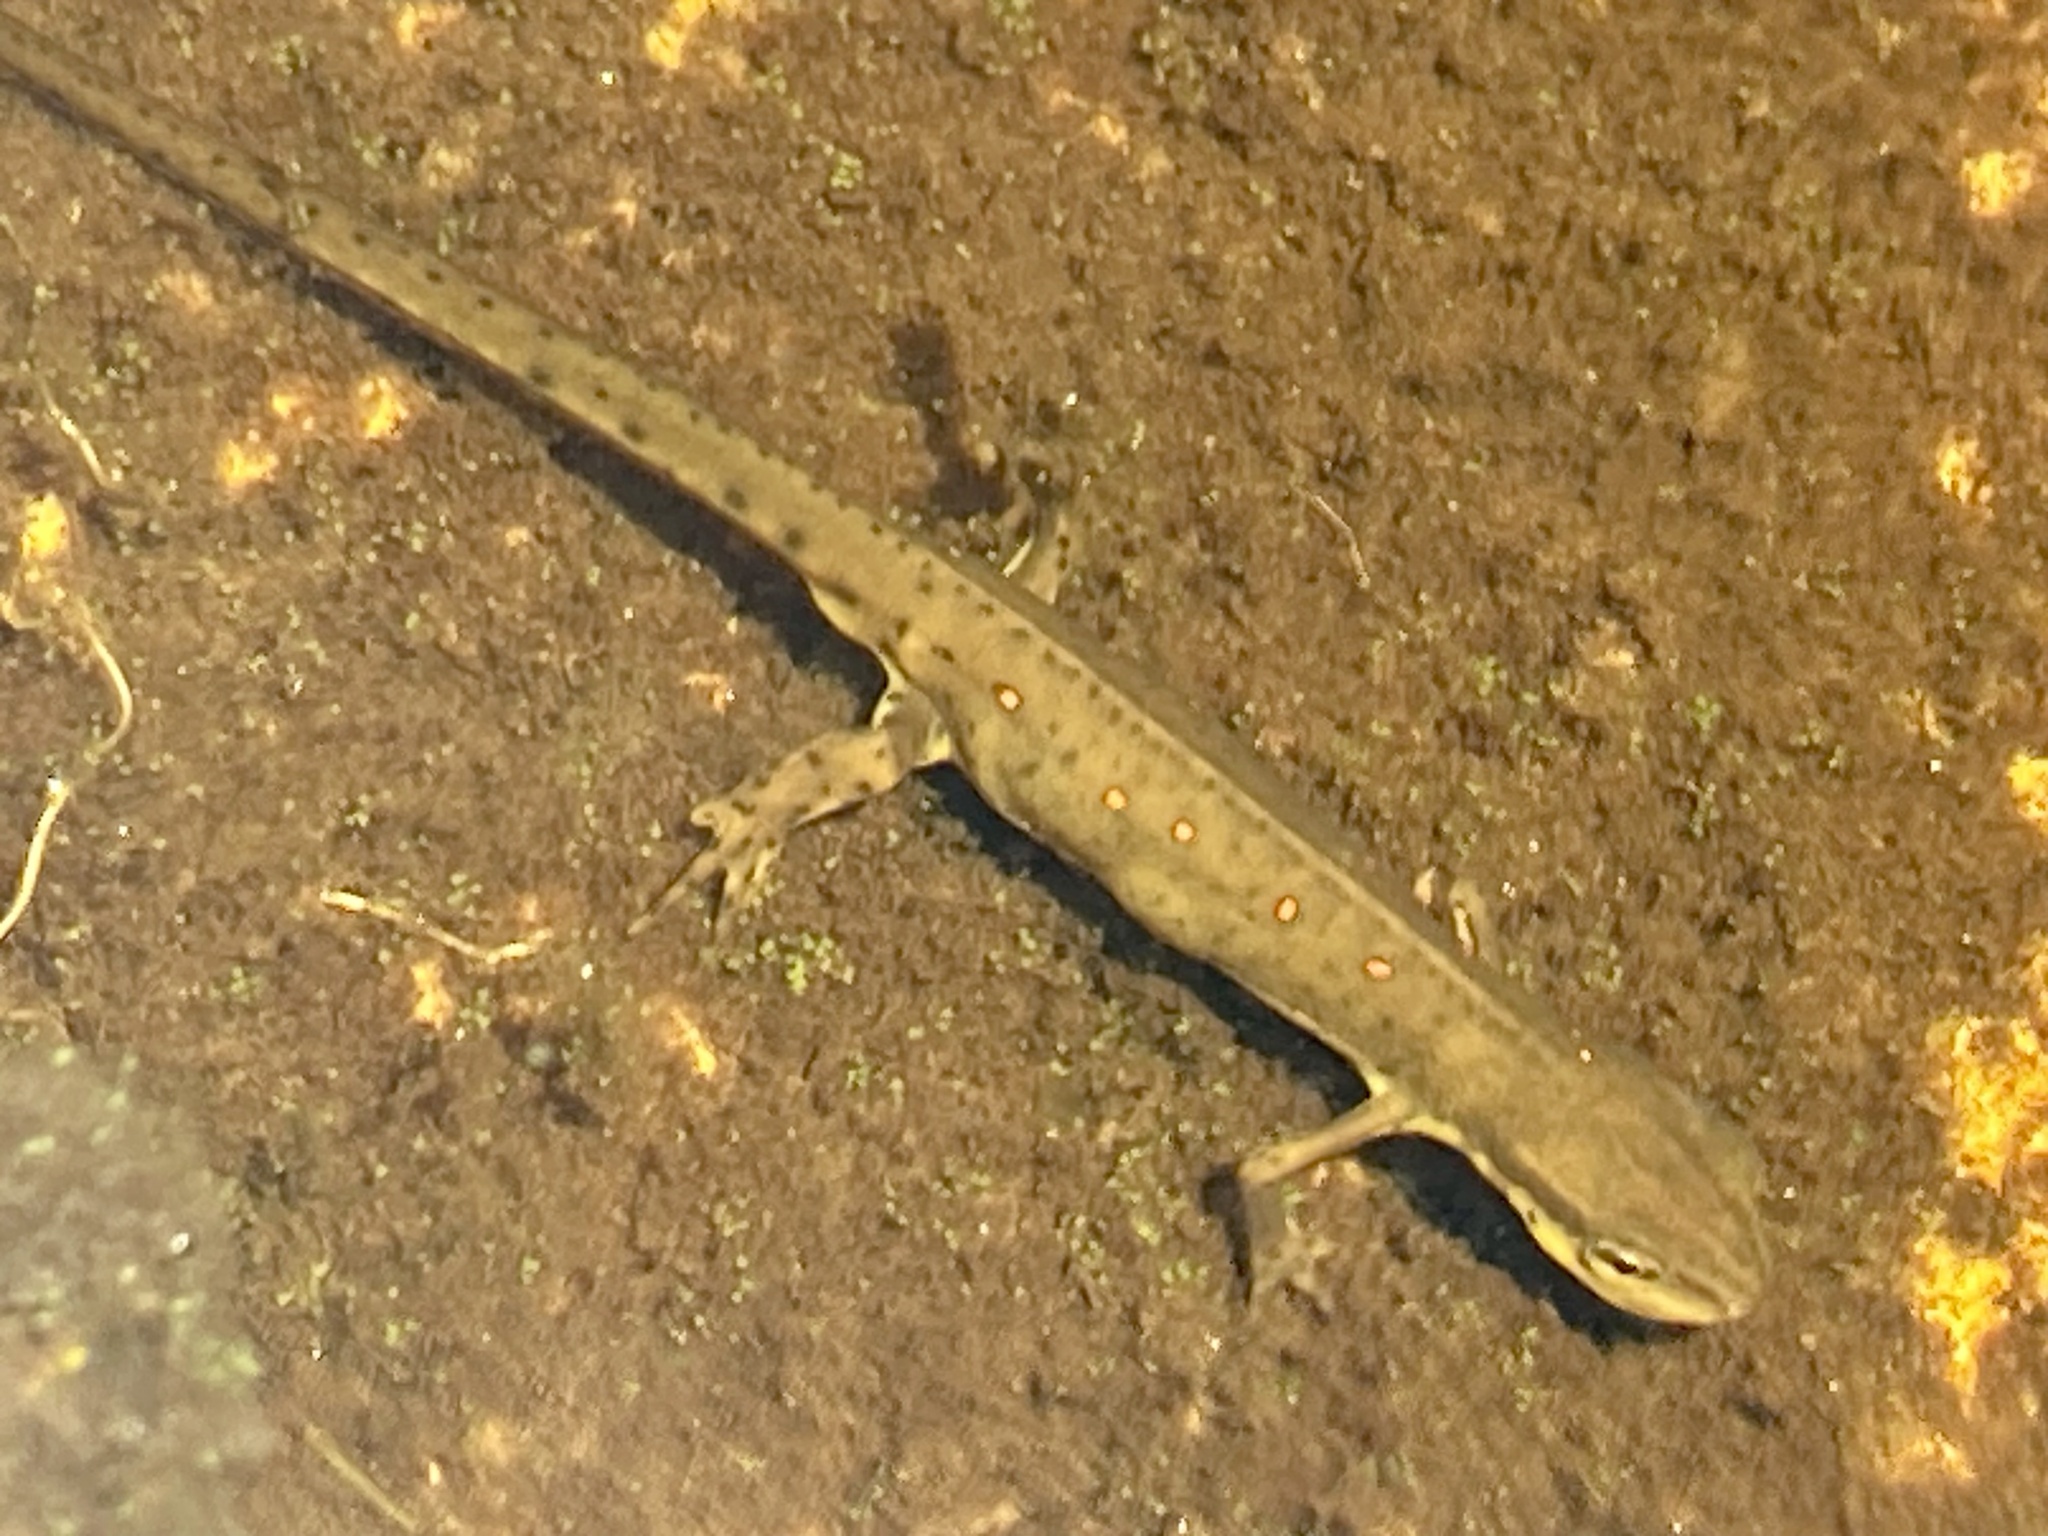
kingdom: Animalia
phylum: Chordata
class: Amphibia
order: Caudata
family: Salamandridae
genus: Notophthalmus
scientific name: Notophthalmus viridescens
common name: Eastern newt
